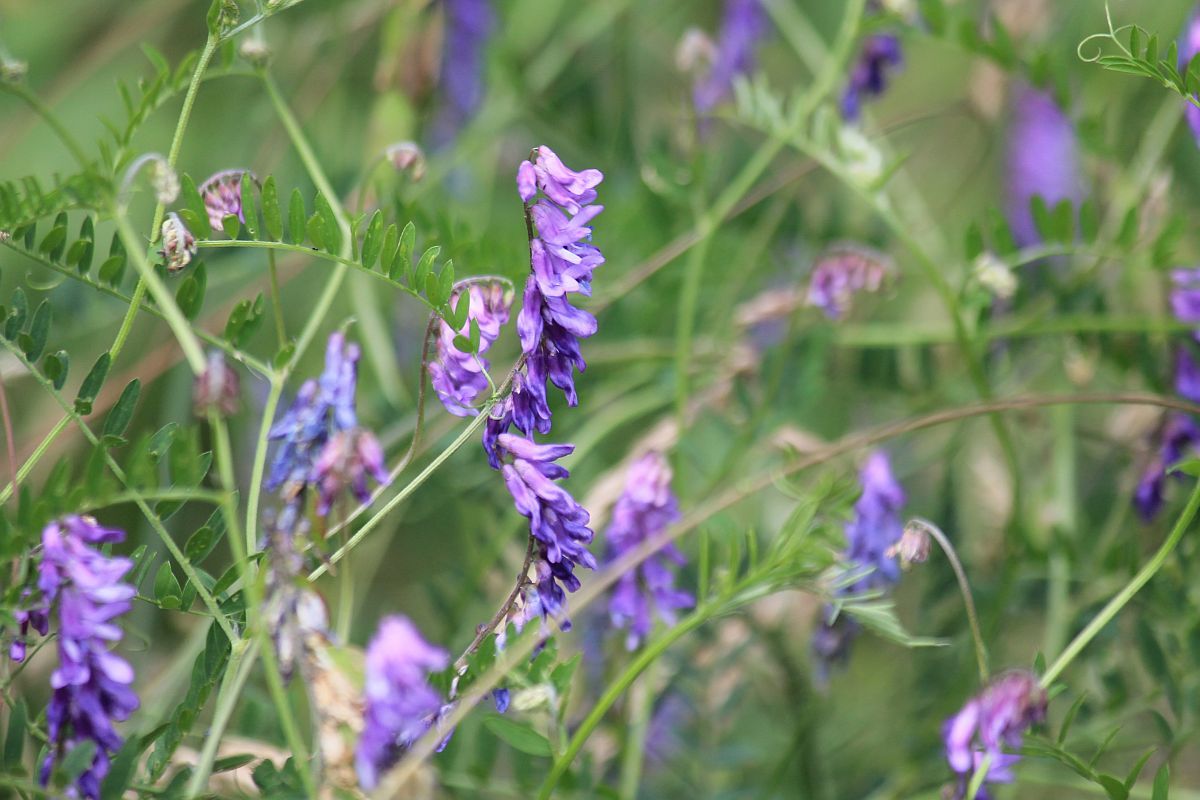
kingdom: Plantae
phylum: Tracheophyta
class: Magnoliopsida
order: Fabales
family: Fabaceae
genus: Vicia
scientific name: Vicia cracca
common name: Bird vetch
